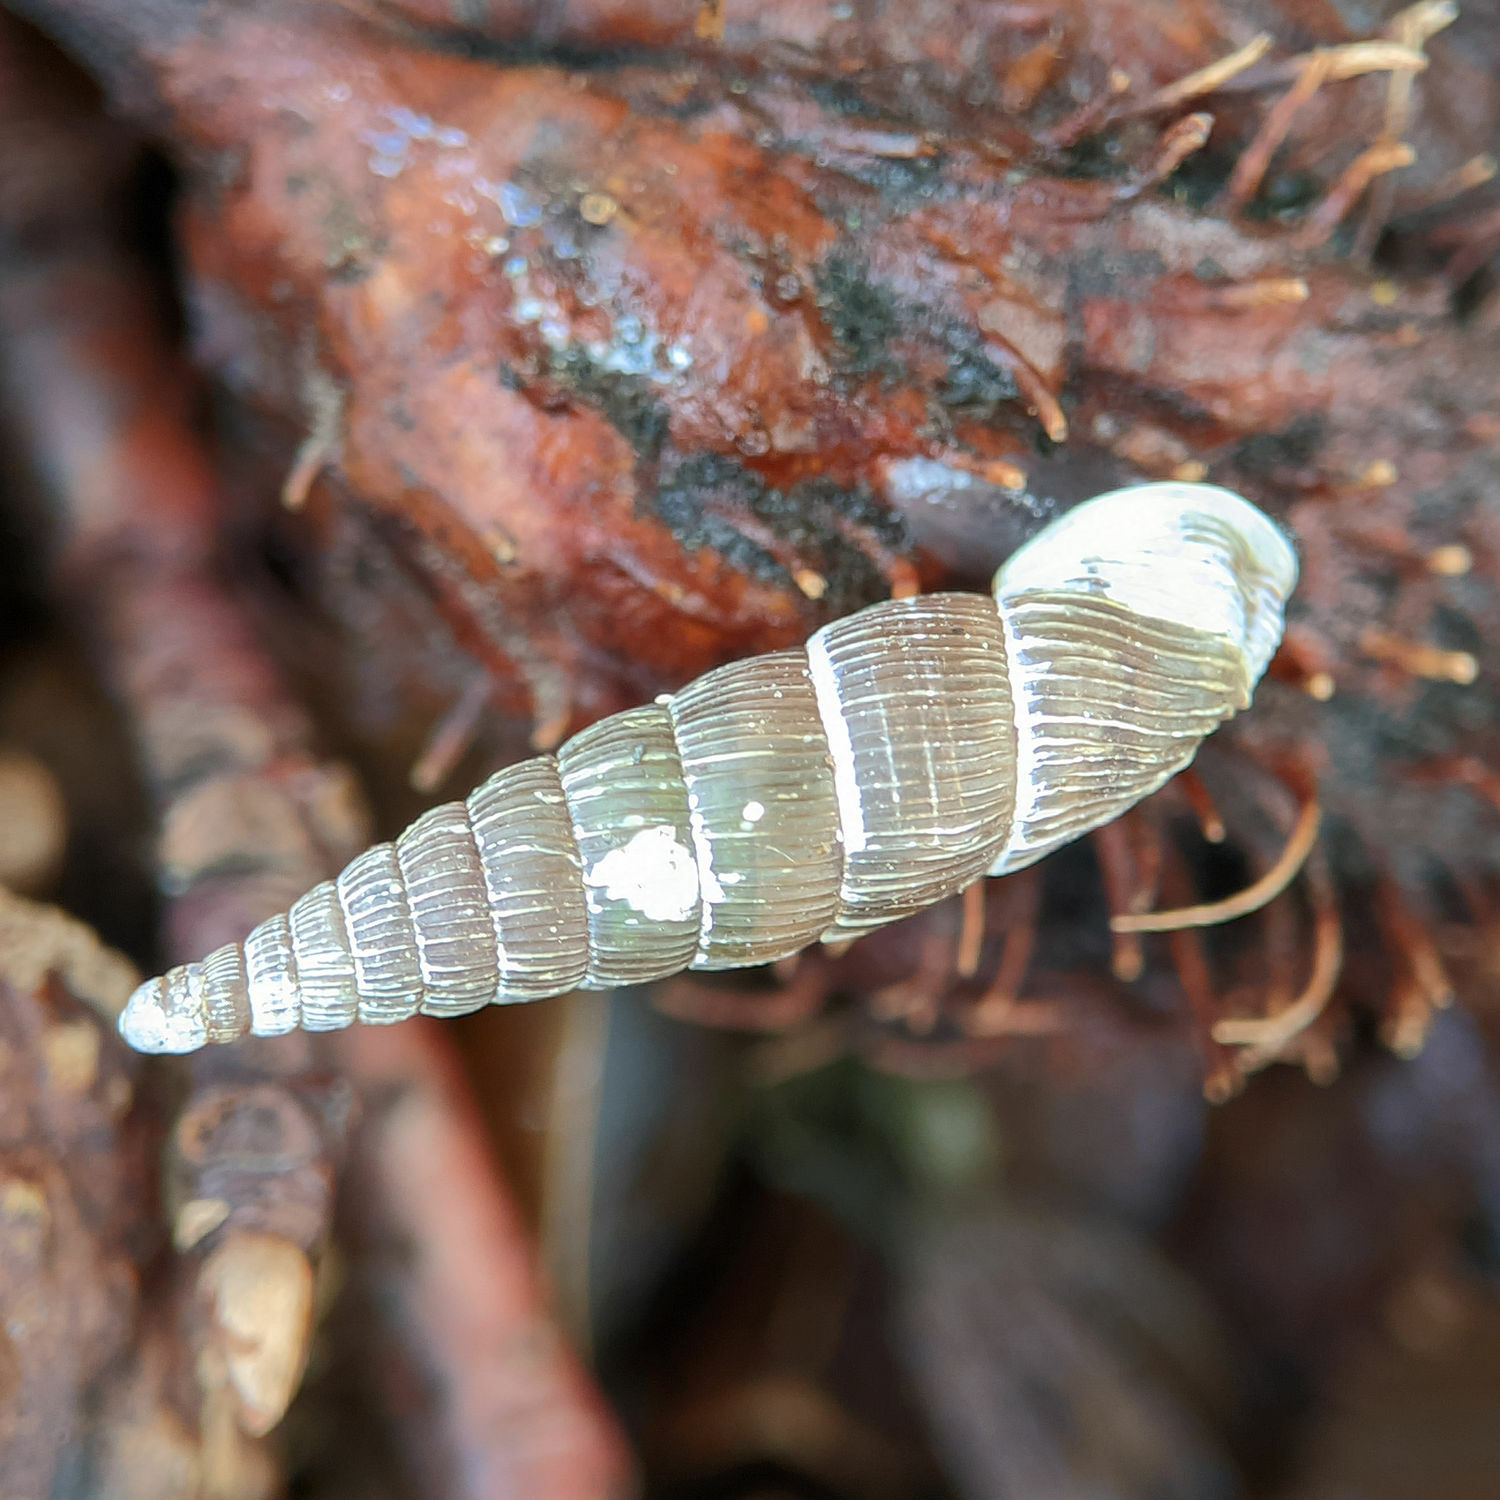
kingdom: Animalia
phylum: Mollusca
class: Gastropoda
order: Stylommatophora
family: Clausiliidae
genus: Alinda
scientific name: Alinda biplicata
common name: Thames door snail
